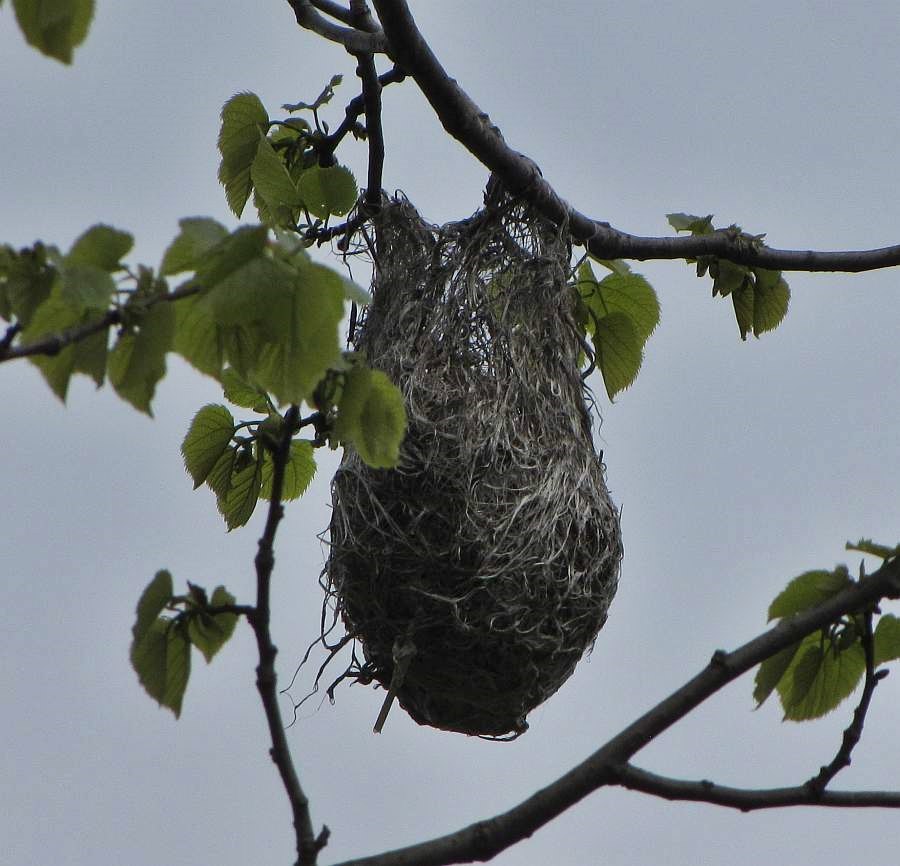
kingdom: Animalia
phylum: Chordata
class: Aves
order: Passeriformes
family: Icteridae
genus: Icterus
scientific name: Icterus galbula
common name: Baltimore oriole
